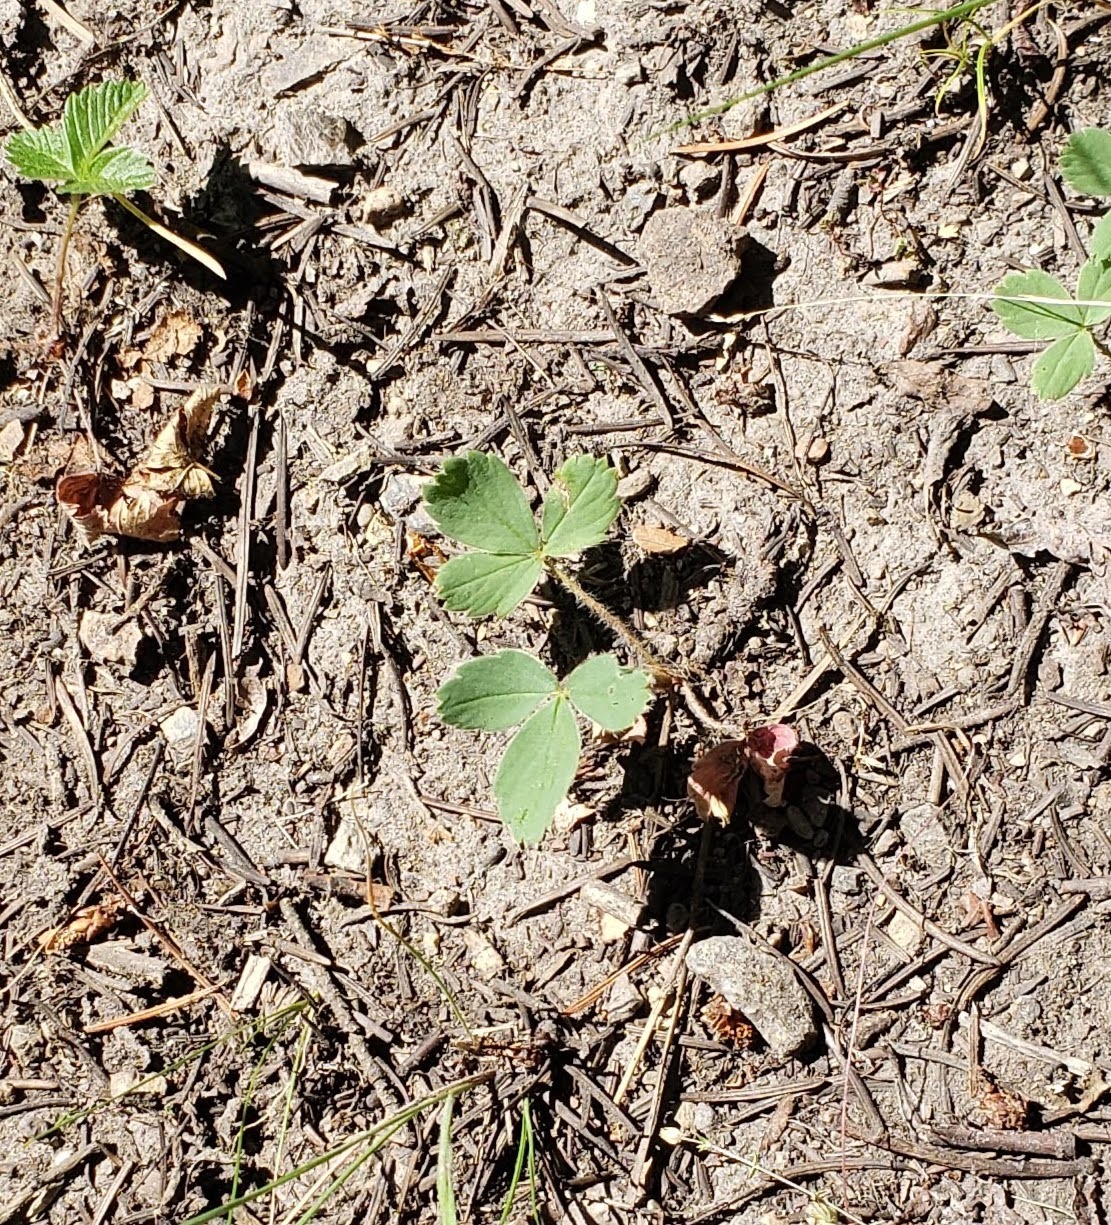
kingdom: Plantae
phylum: Tracheophyta
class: Magnoliopsida
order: Rosales
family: Rosaceae
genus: Fragaria
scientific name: Fragaria virginiana
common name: Thickleaved wild strawberry
